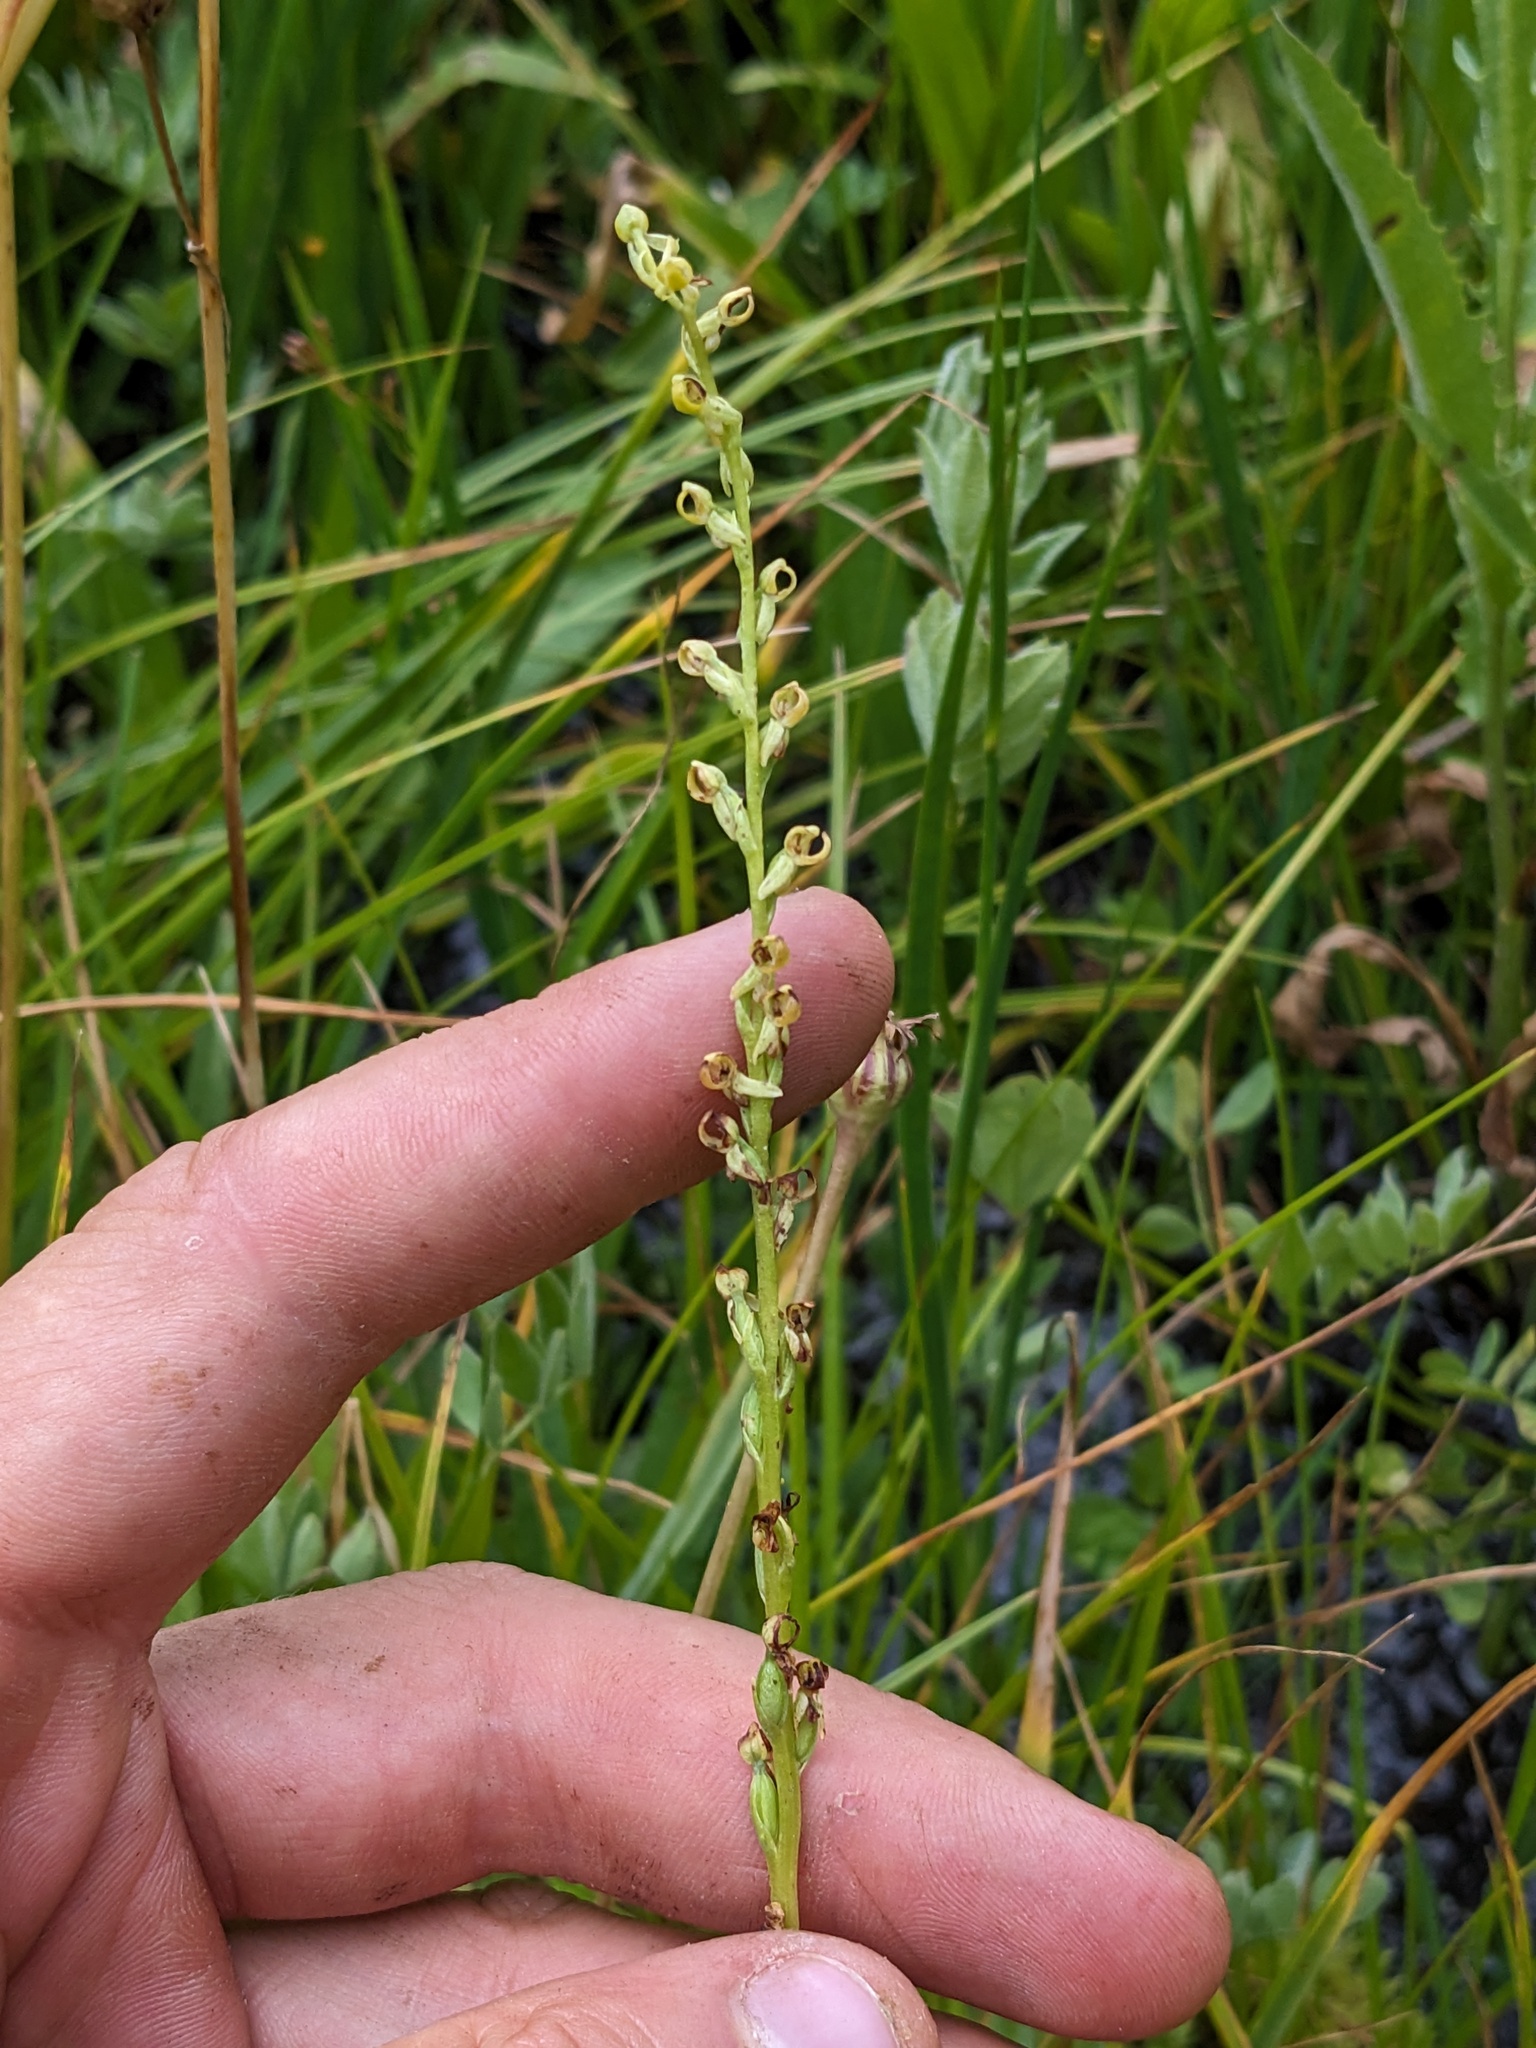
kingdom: Plantae
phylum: Tracheophyta
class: Liliopsida
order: Asparagales
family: Orchidaceae
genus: Platanthera
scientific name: Platanthera yosemitensis
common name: Yosemite bog orchid
